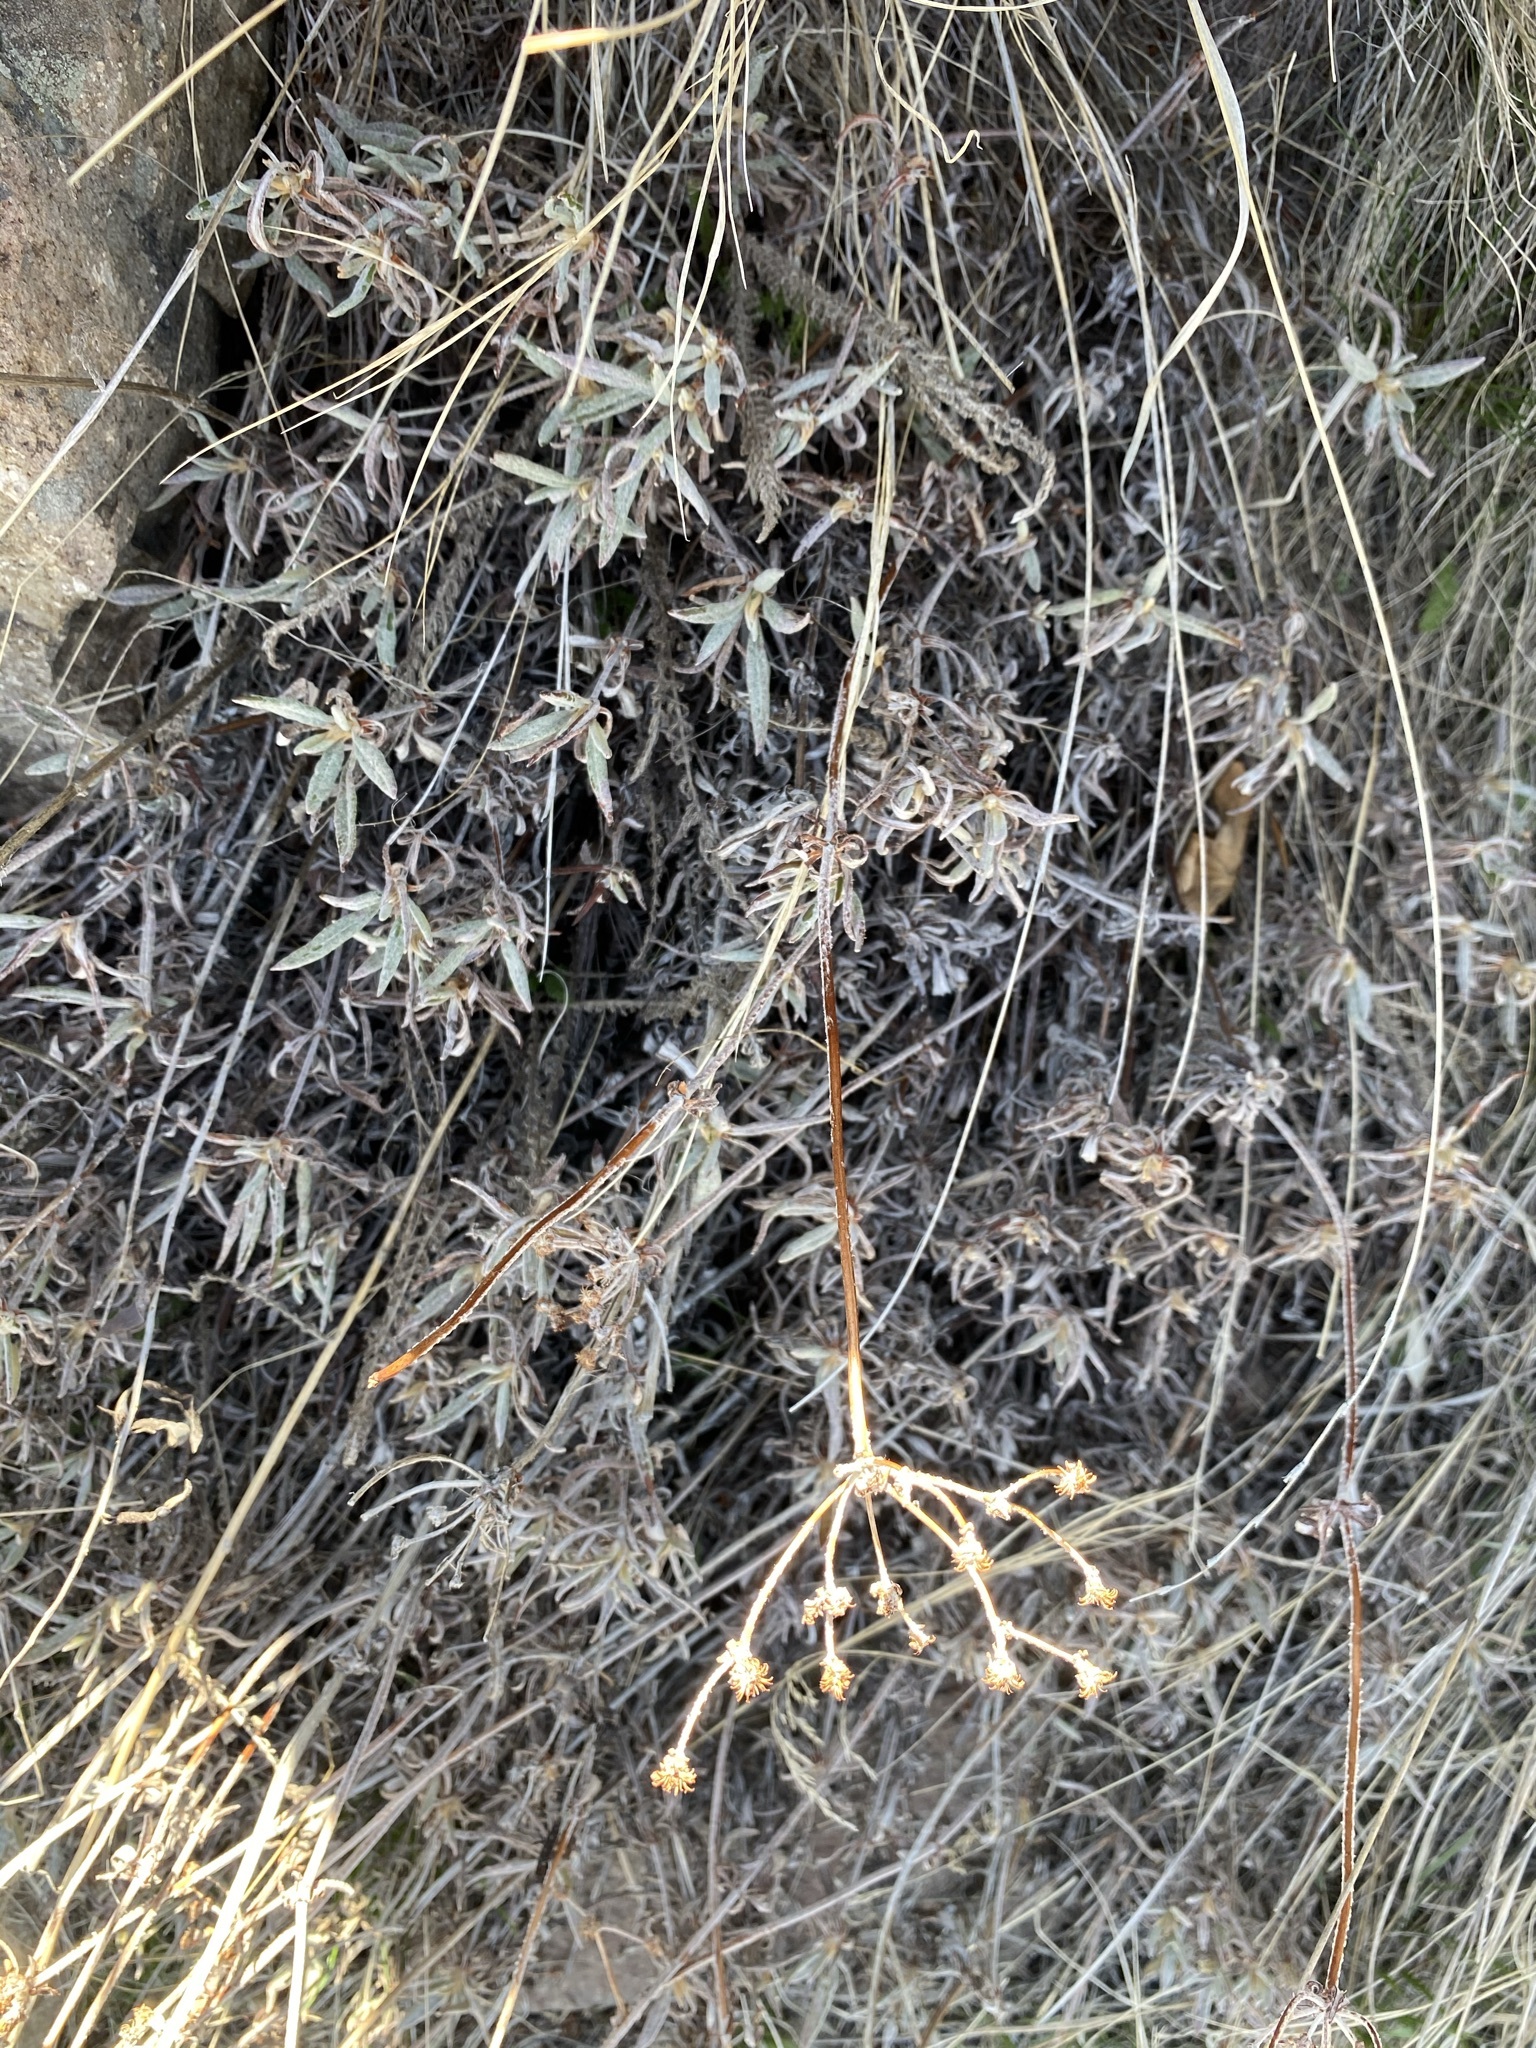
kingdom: Plantae
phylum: Tracheophyta
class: Magnoliopsida
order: Caryophyllales
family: Polygonaceae
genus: Eriogonum
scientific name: Eriogonum heracleoides
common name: Wyeth's buckwheat
